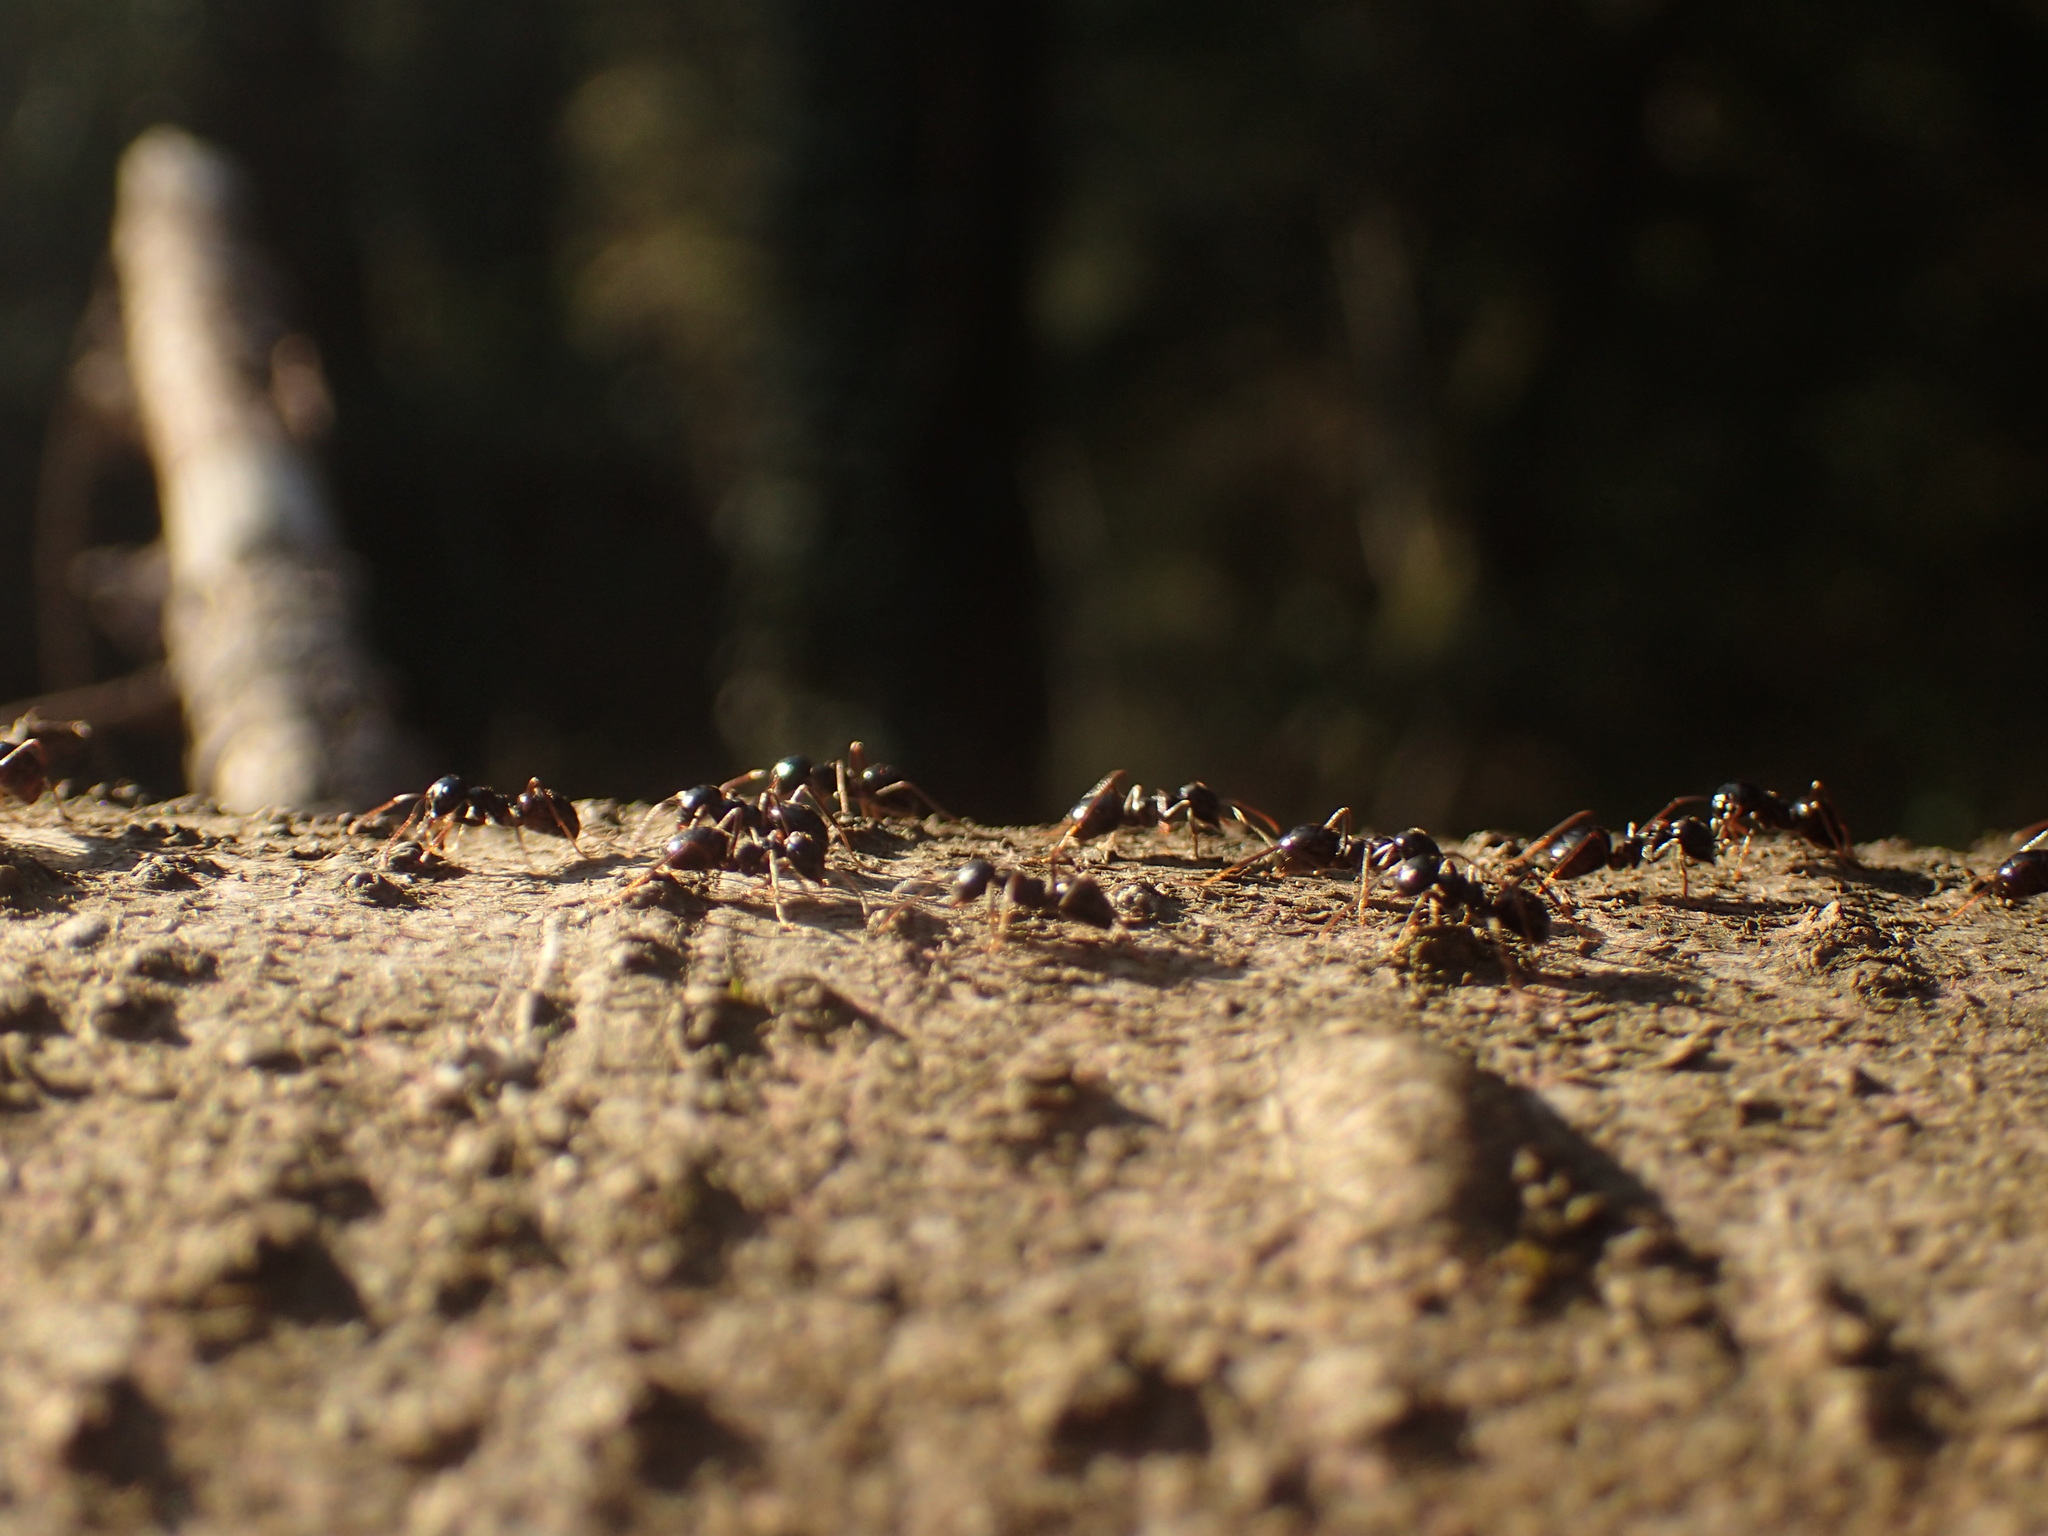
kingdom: Animalia
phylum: Arthropoda
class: Insecta
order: Hymenoptera
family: Formicidae
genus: Lasius
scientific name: Lasius fuliginosus
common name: Jet ant
